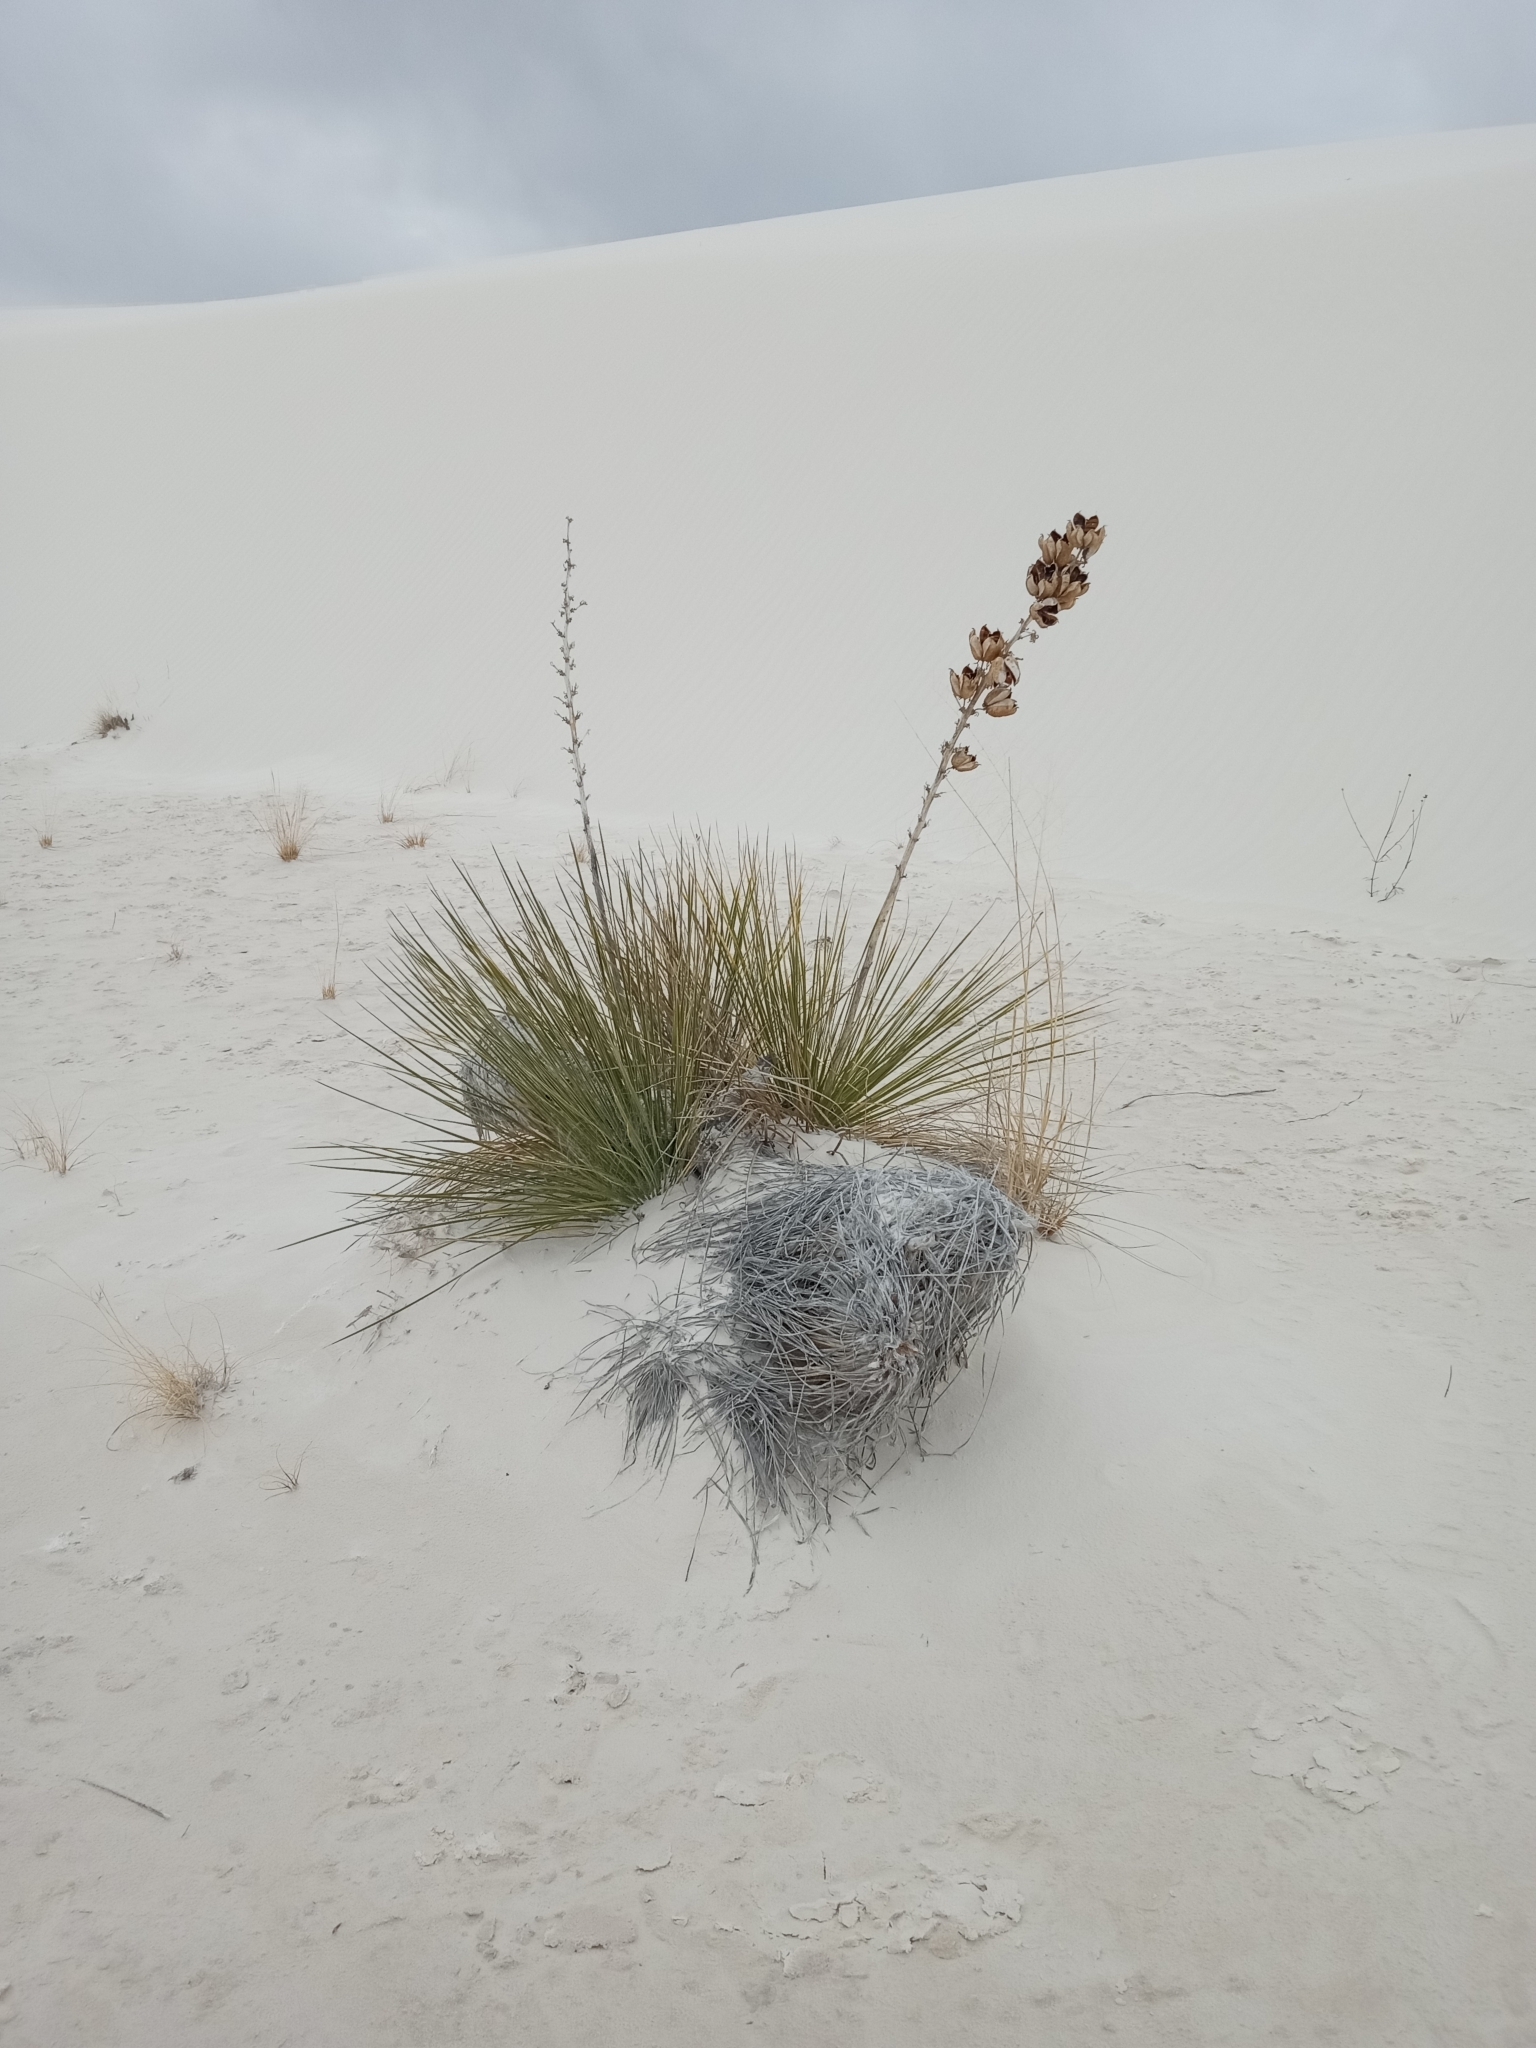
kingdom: Plantae
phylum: Tracheophyta
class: Liliopsida
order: Asparagales
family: Asparagaceae
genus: Yucca
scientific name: Yucca elata
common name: Palmella
